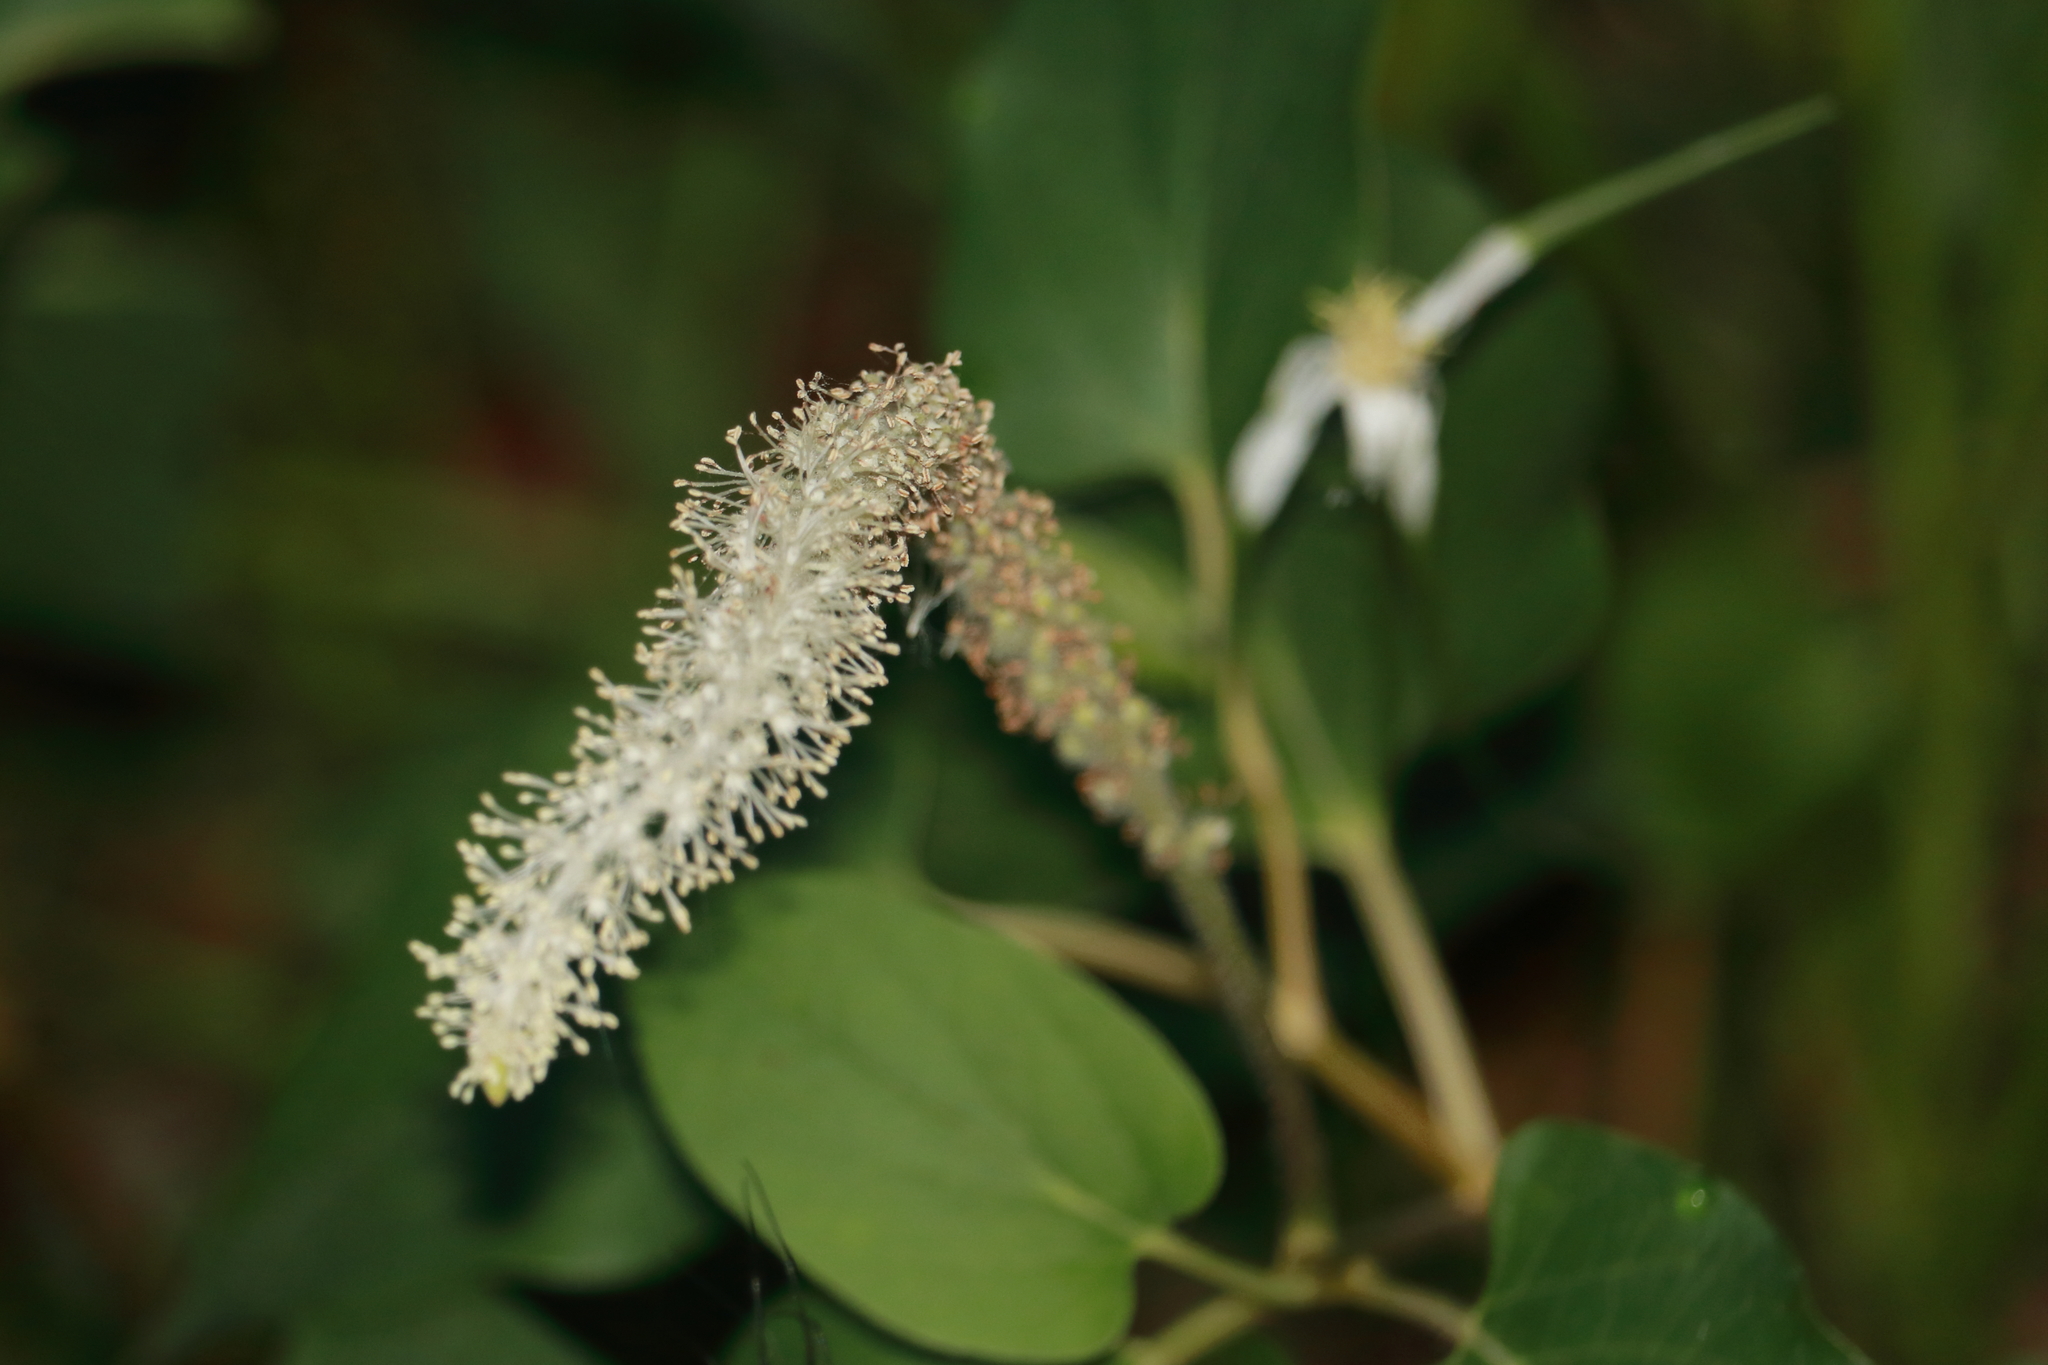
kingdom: Plantae
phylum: Tracheophyta
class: Magnoliopsida
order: Piperales
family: Saururaceae
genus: Saururus
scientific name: Saururus cernuus
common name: Lizard's-tail
